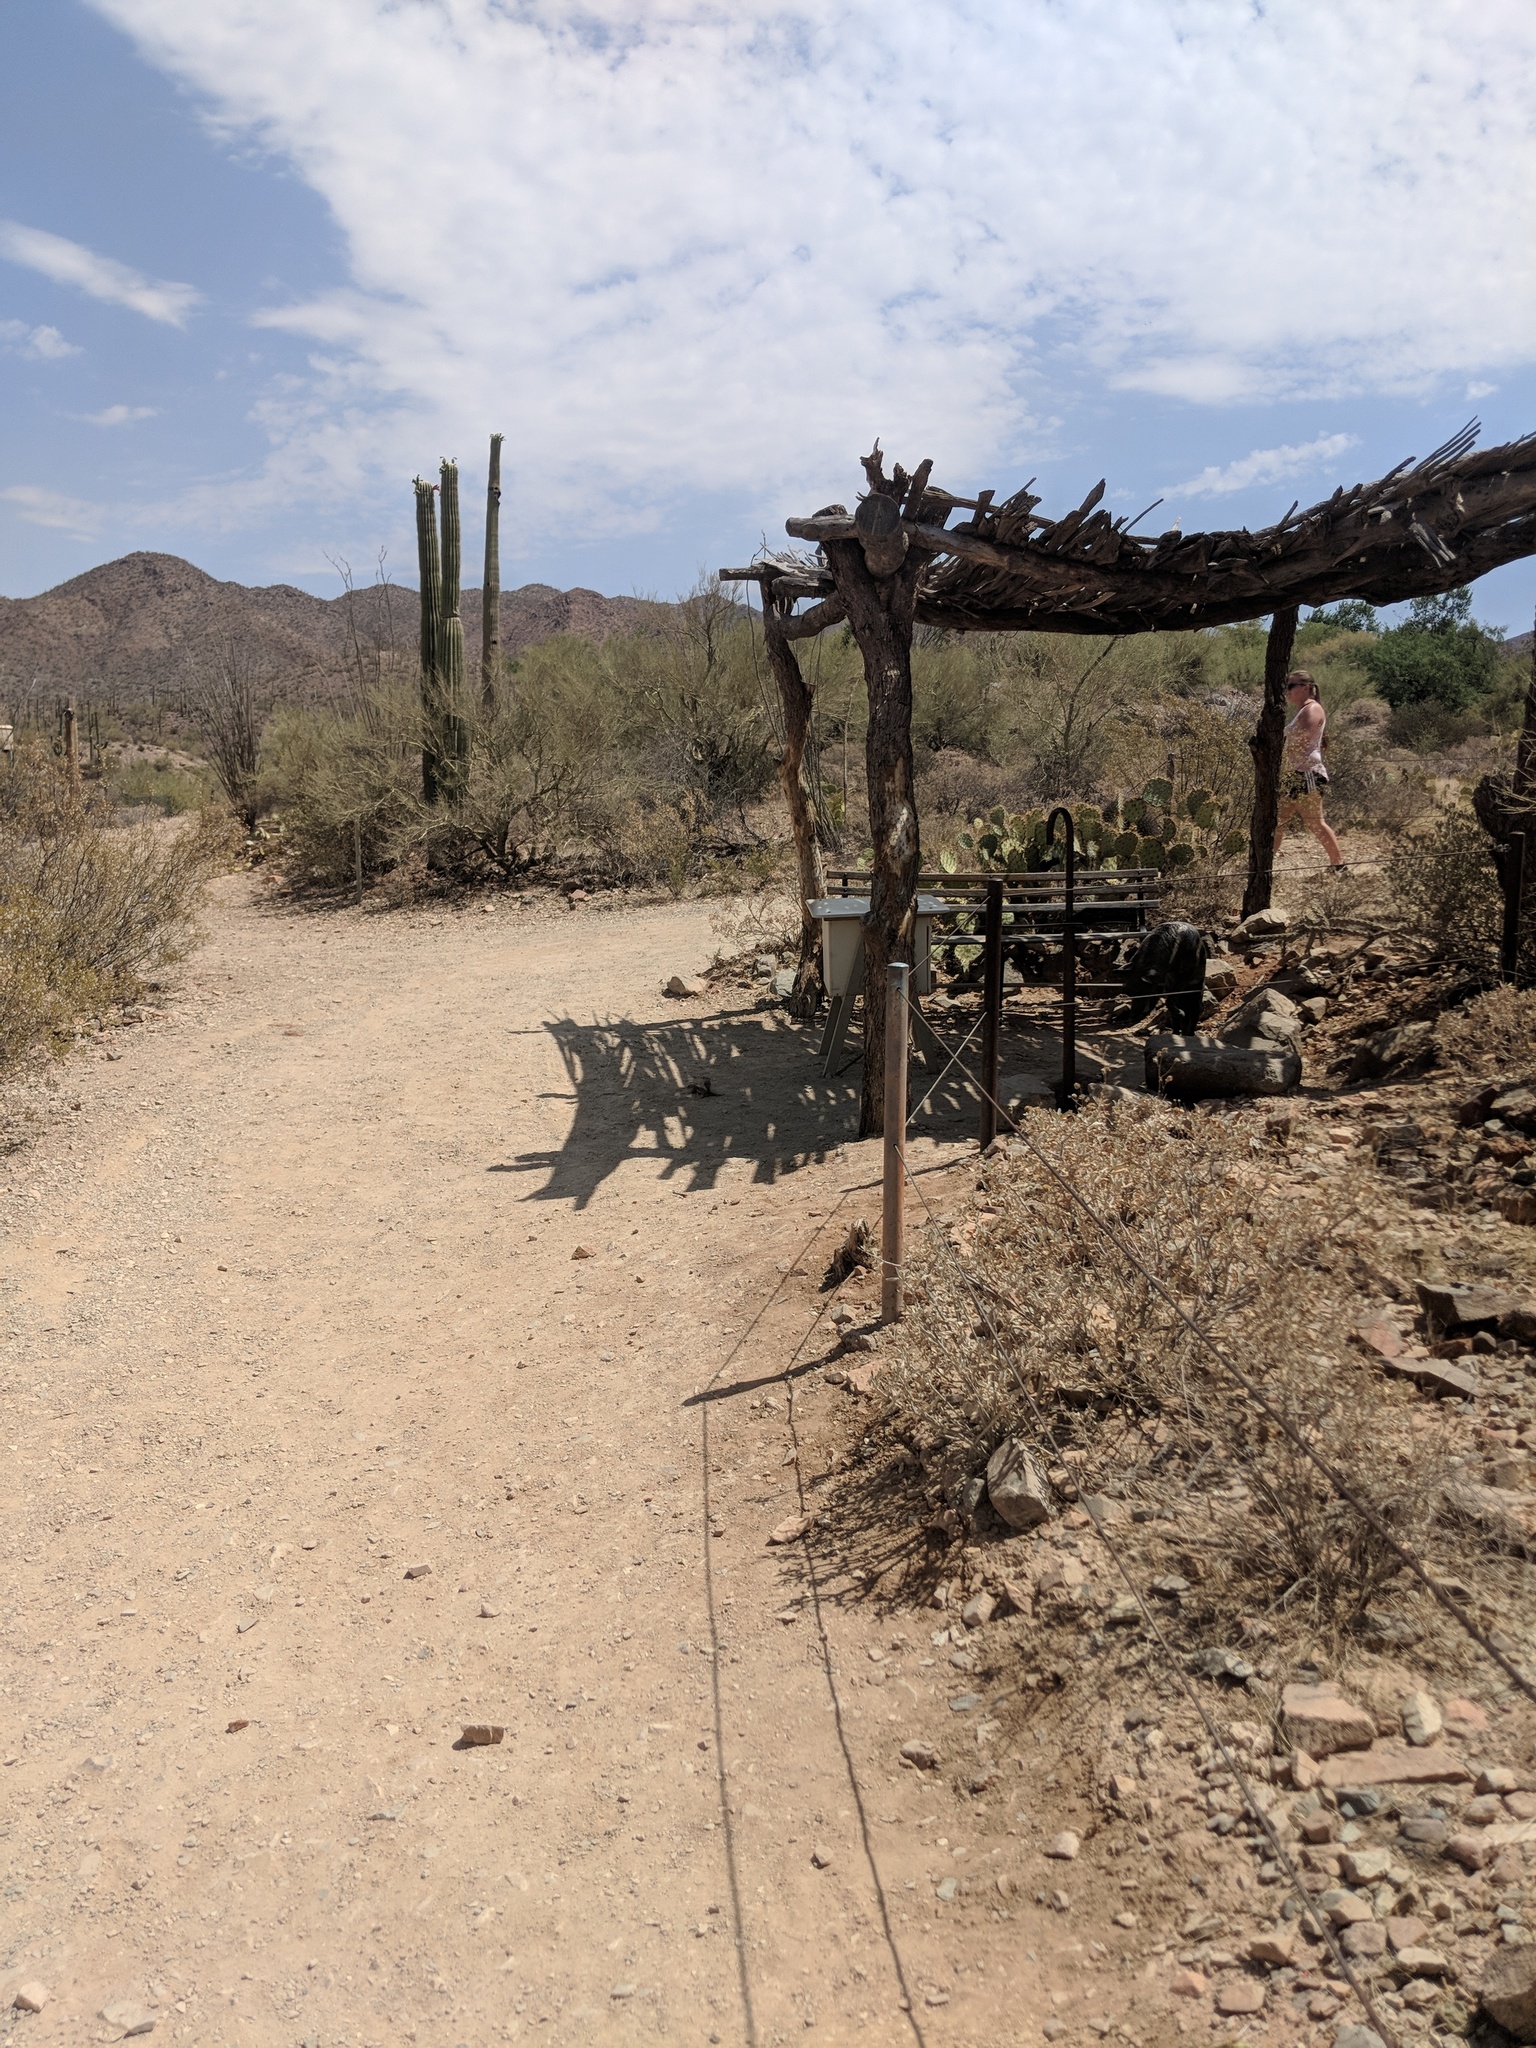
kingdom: Animalia
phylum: Chordata
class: Mammalia
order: Rodentia
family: Sciuridae
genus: Ammospermophilus
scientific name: Ammospermophilus harrisii
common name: Harris's antelope squirrel
